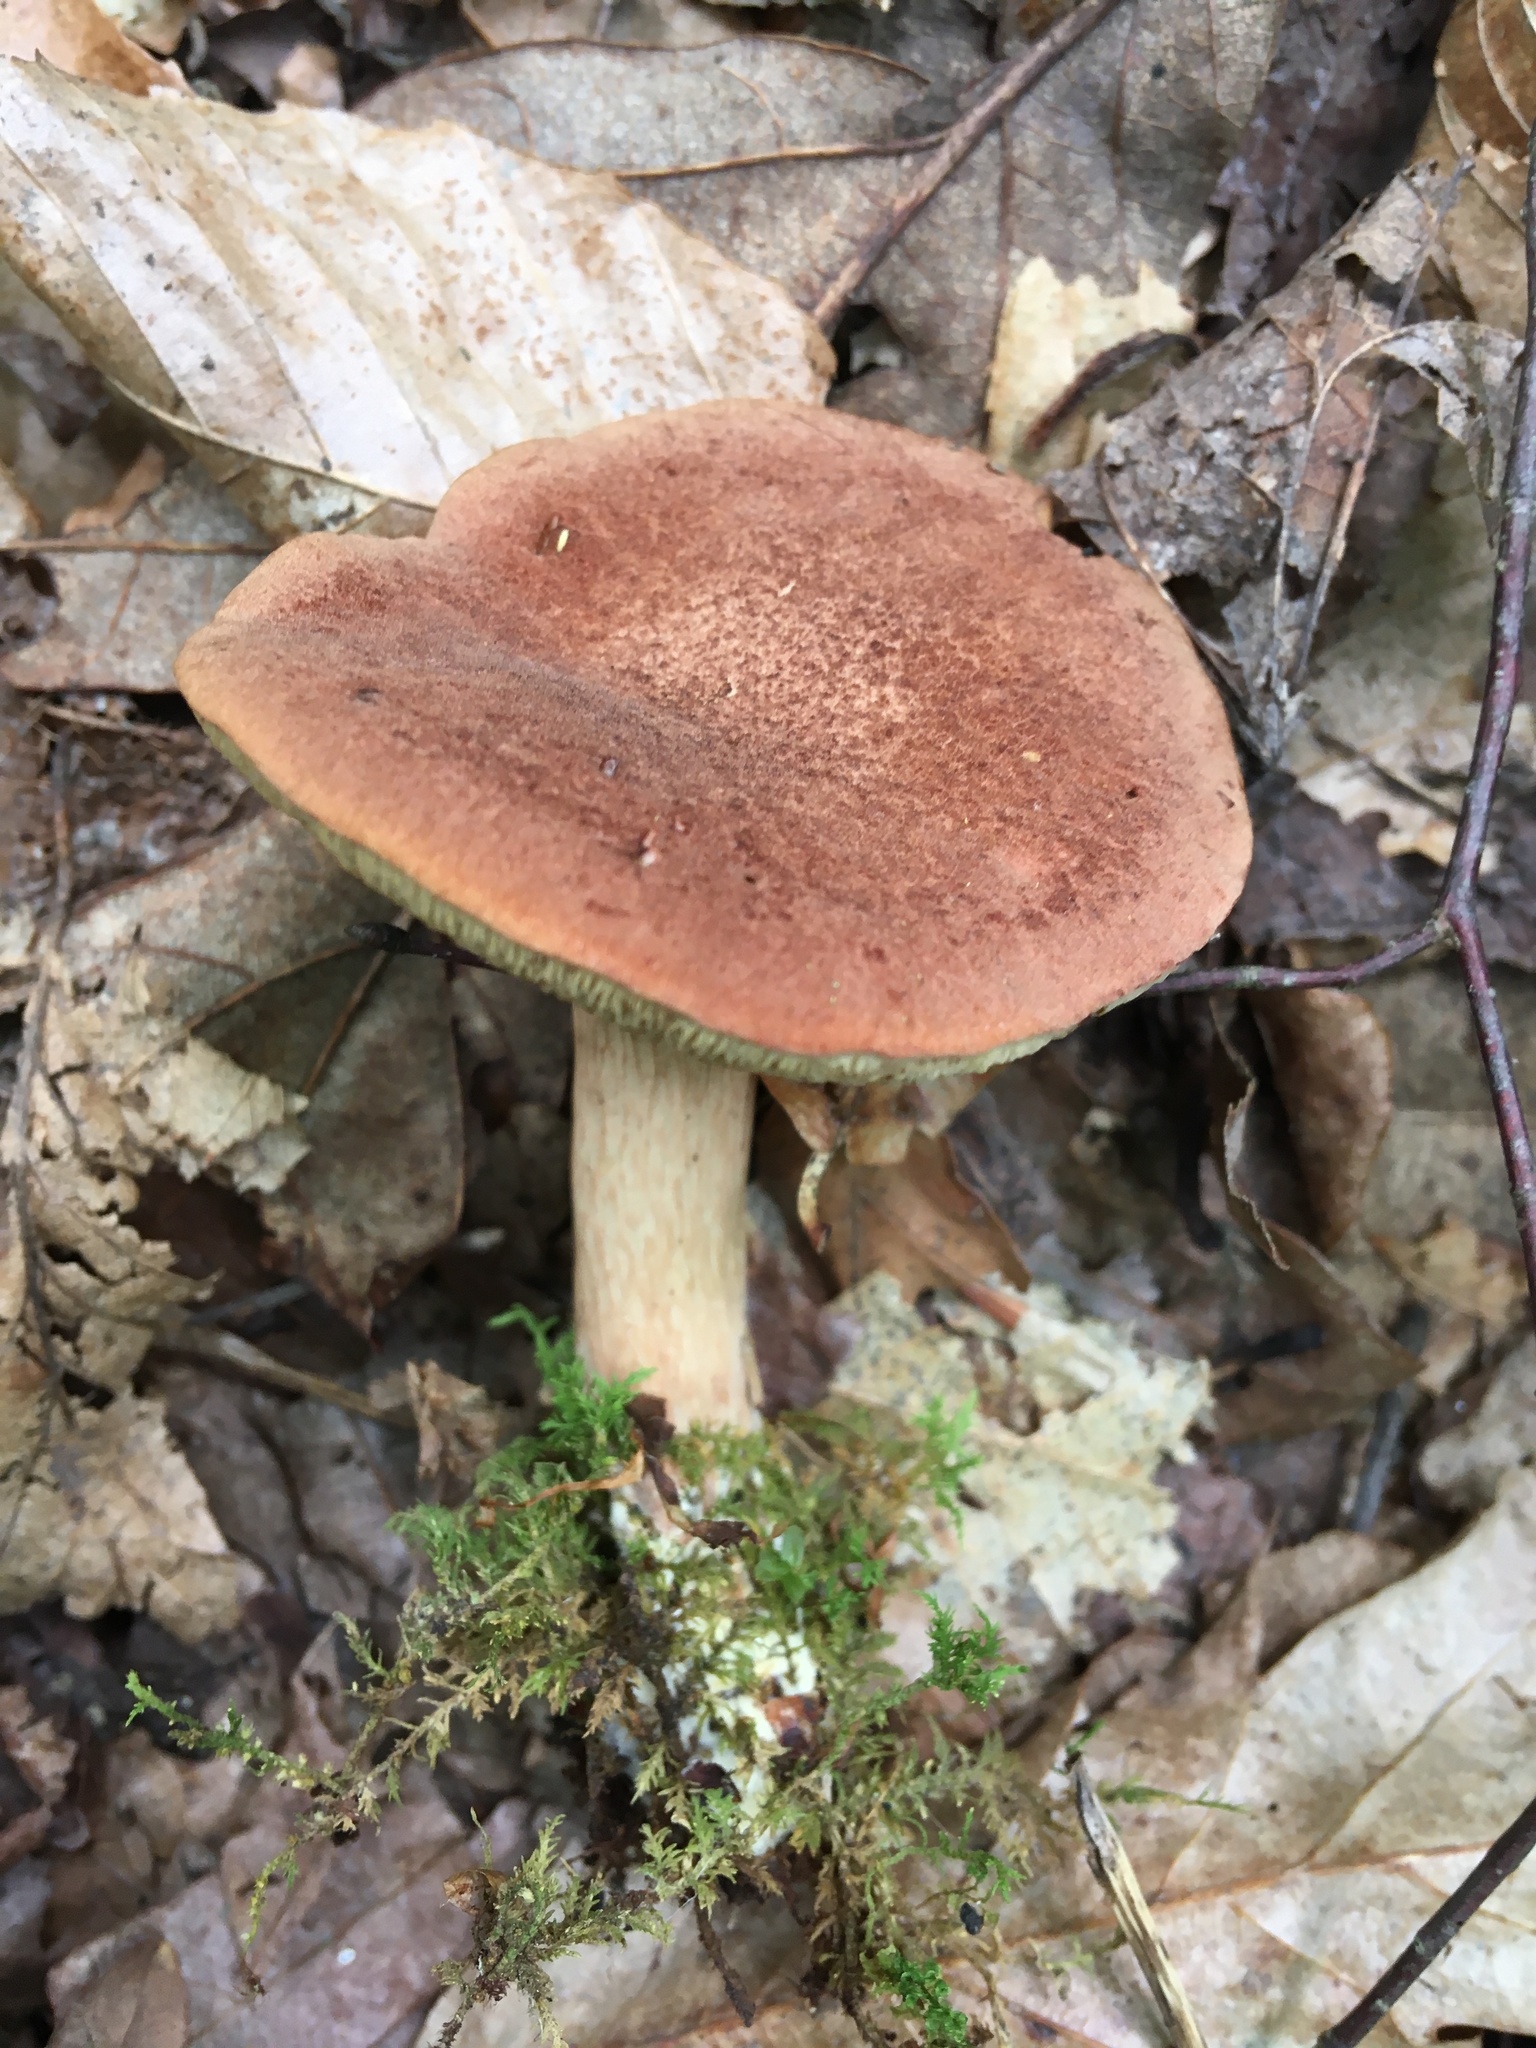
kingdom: Fungi
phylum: Basidiomycota
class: Agaricomycetes
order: Boletales
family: Boletaceae
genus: Bothia
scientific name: Bothia castanella
